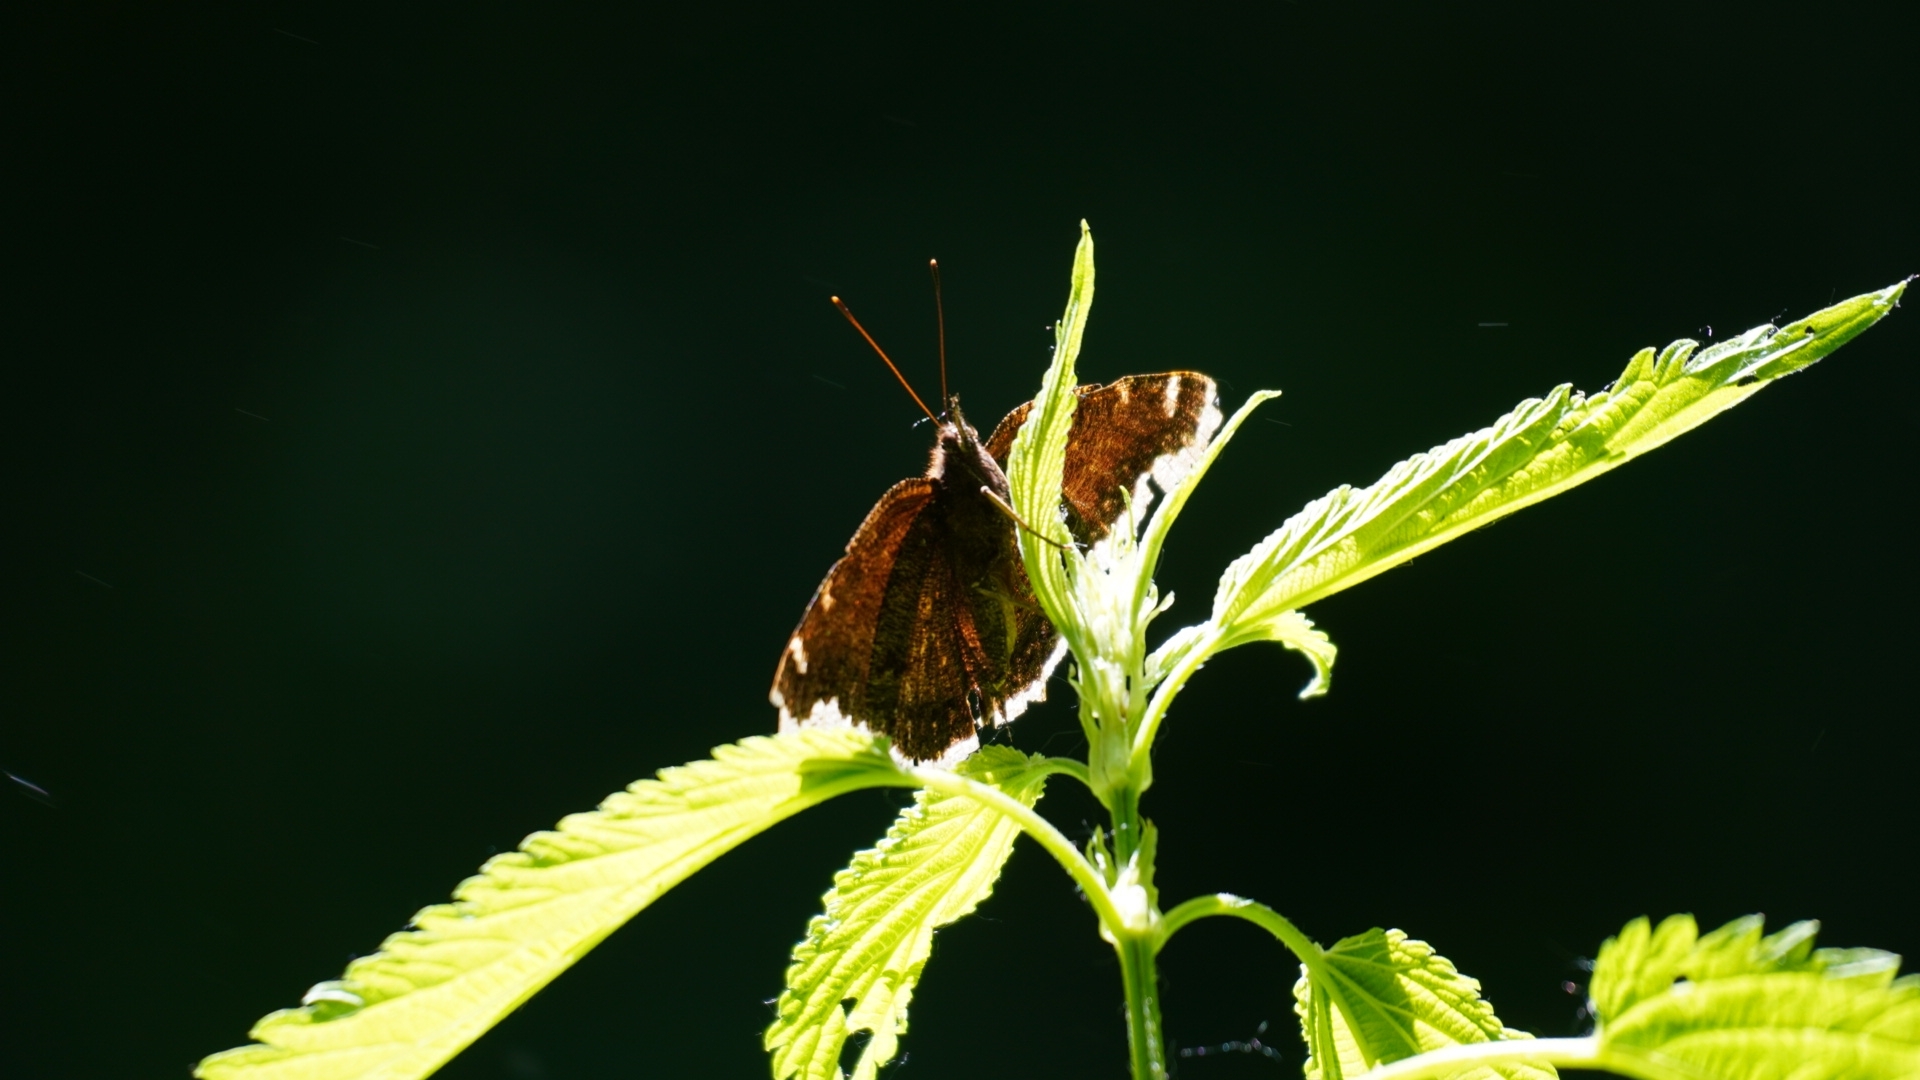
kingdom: Animalia
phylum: Arthropoda
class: Insecta
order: Lepidoptera
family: Nymphalidae
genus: Nymphalis
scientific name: Nymphalis antiopa
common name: Camberwell beauty
